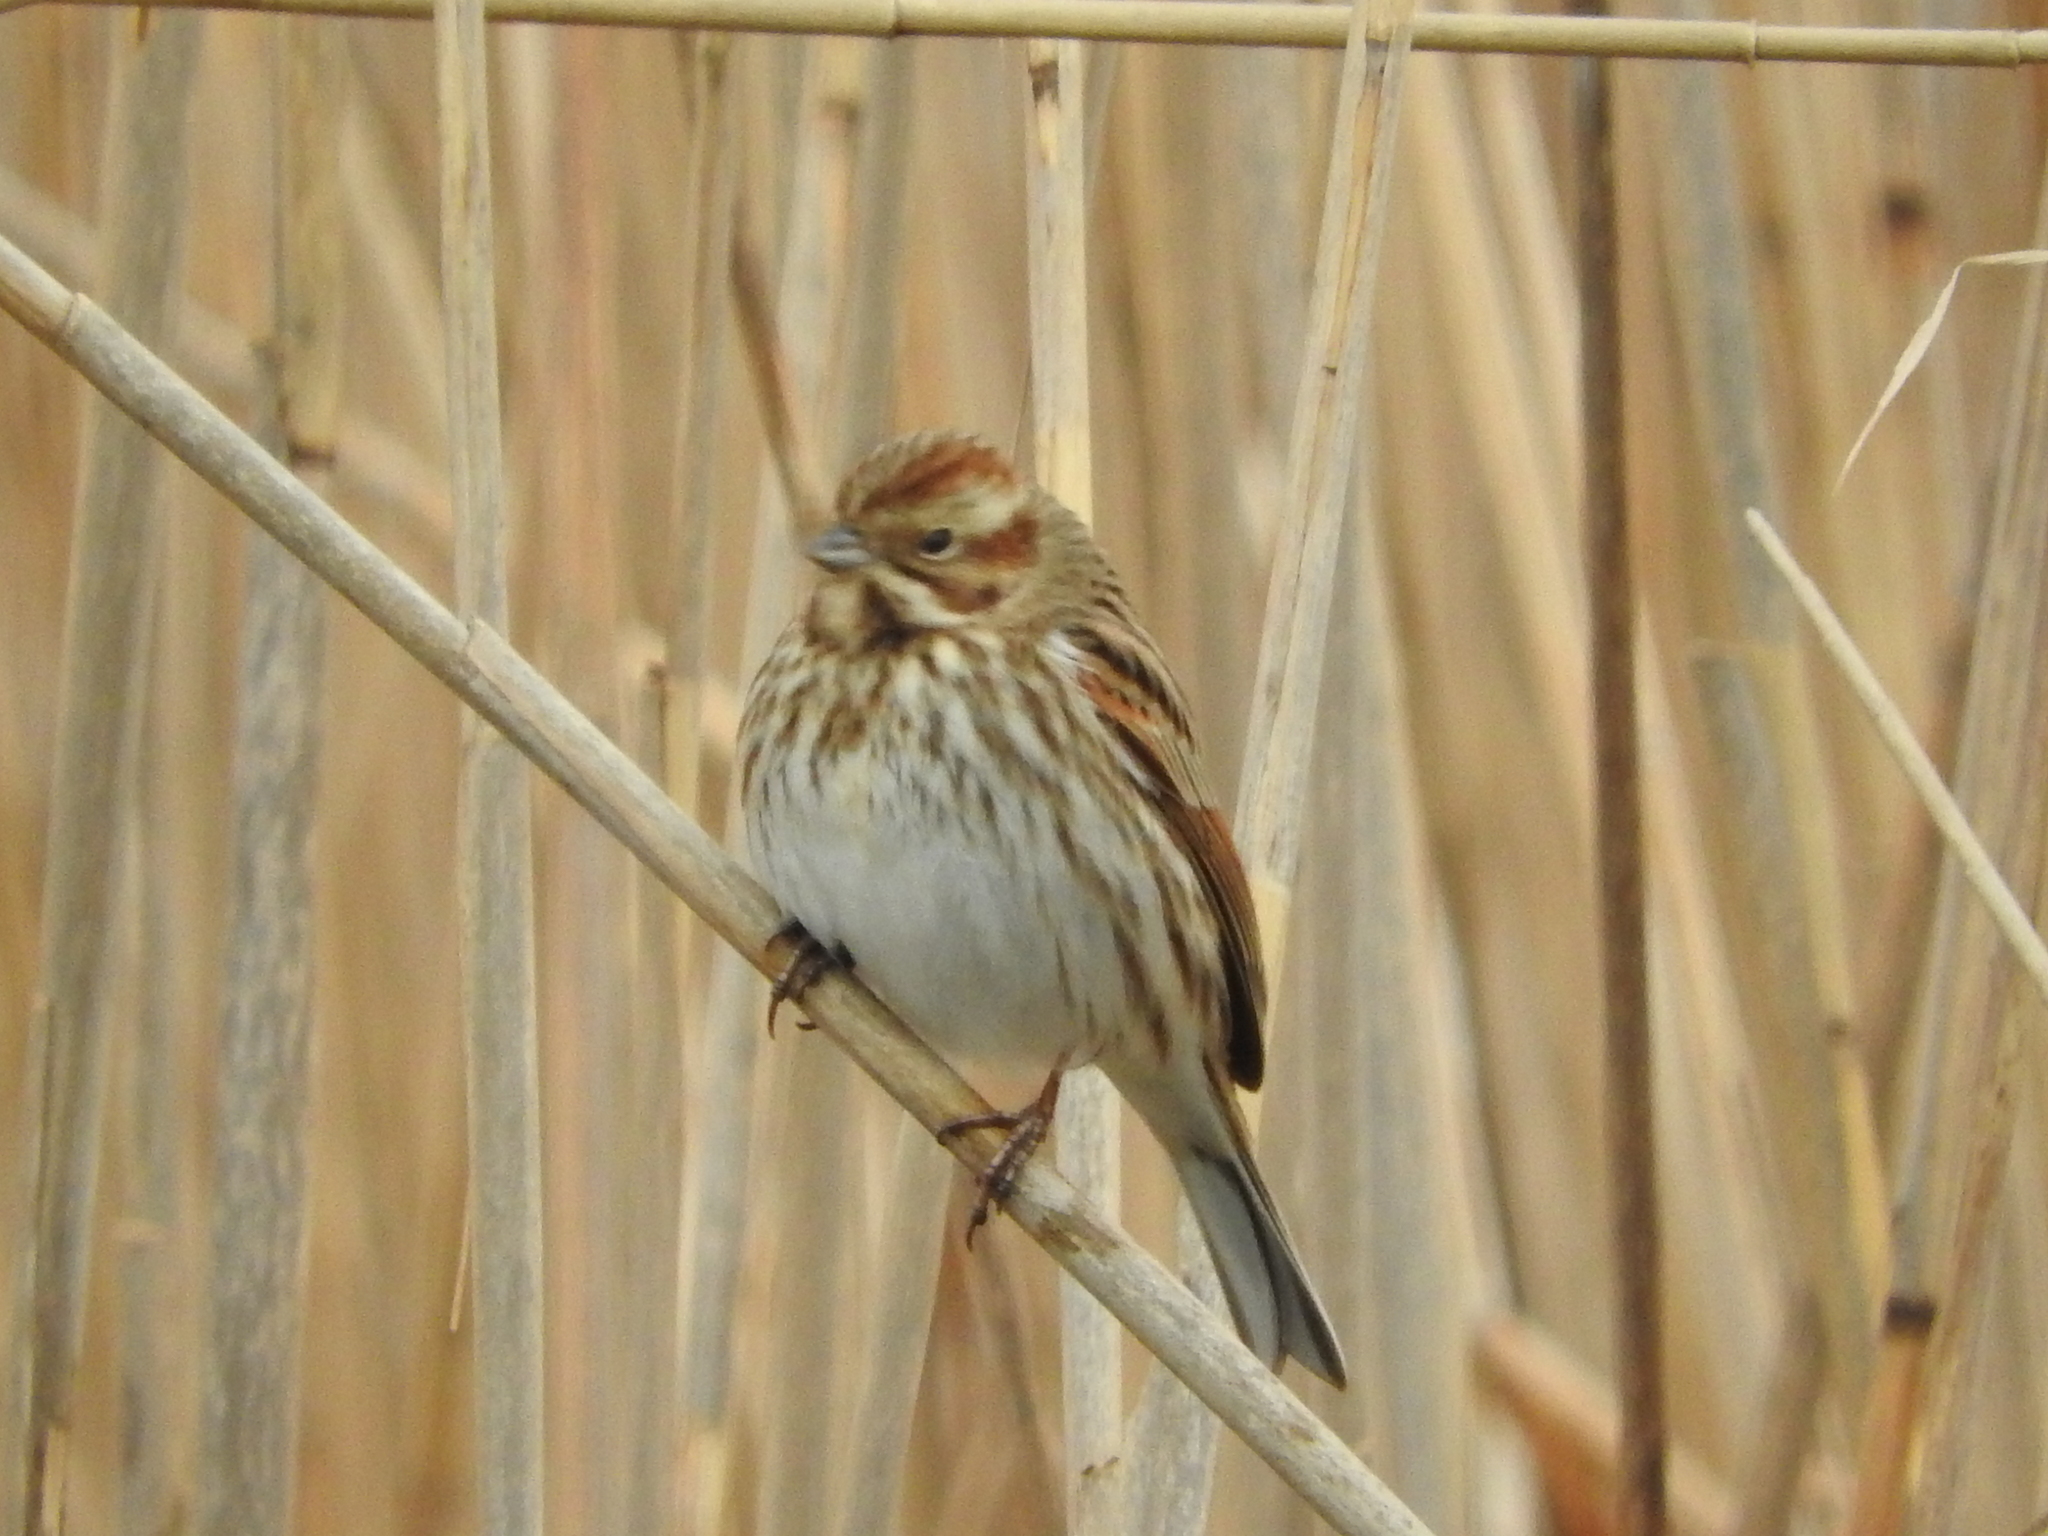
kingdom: Animalia
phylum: Chordata
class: Aves
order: Passeriformes
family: Emberizidae
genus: Emberiza
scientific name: Emberiza schoeniclus
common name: Reed bunting
